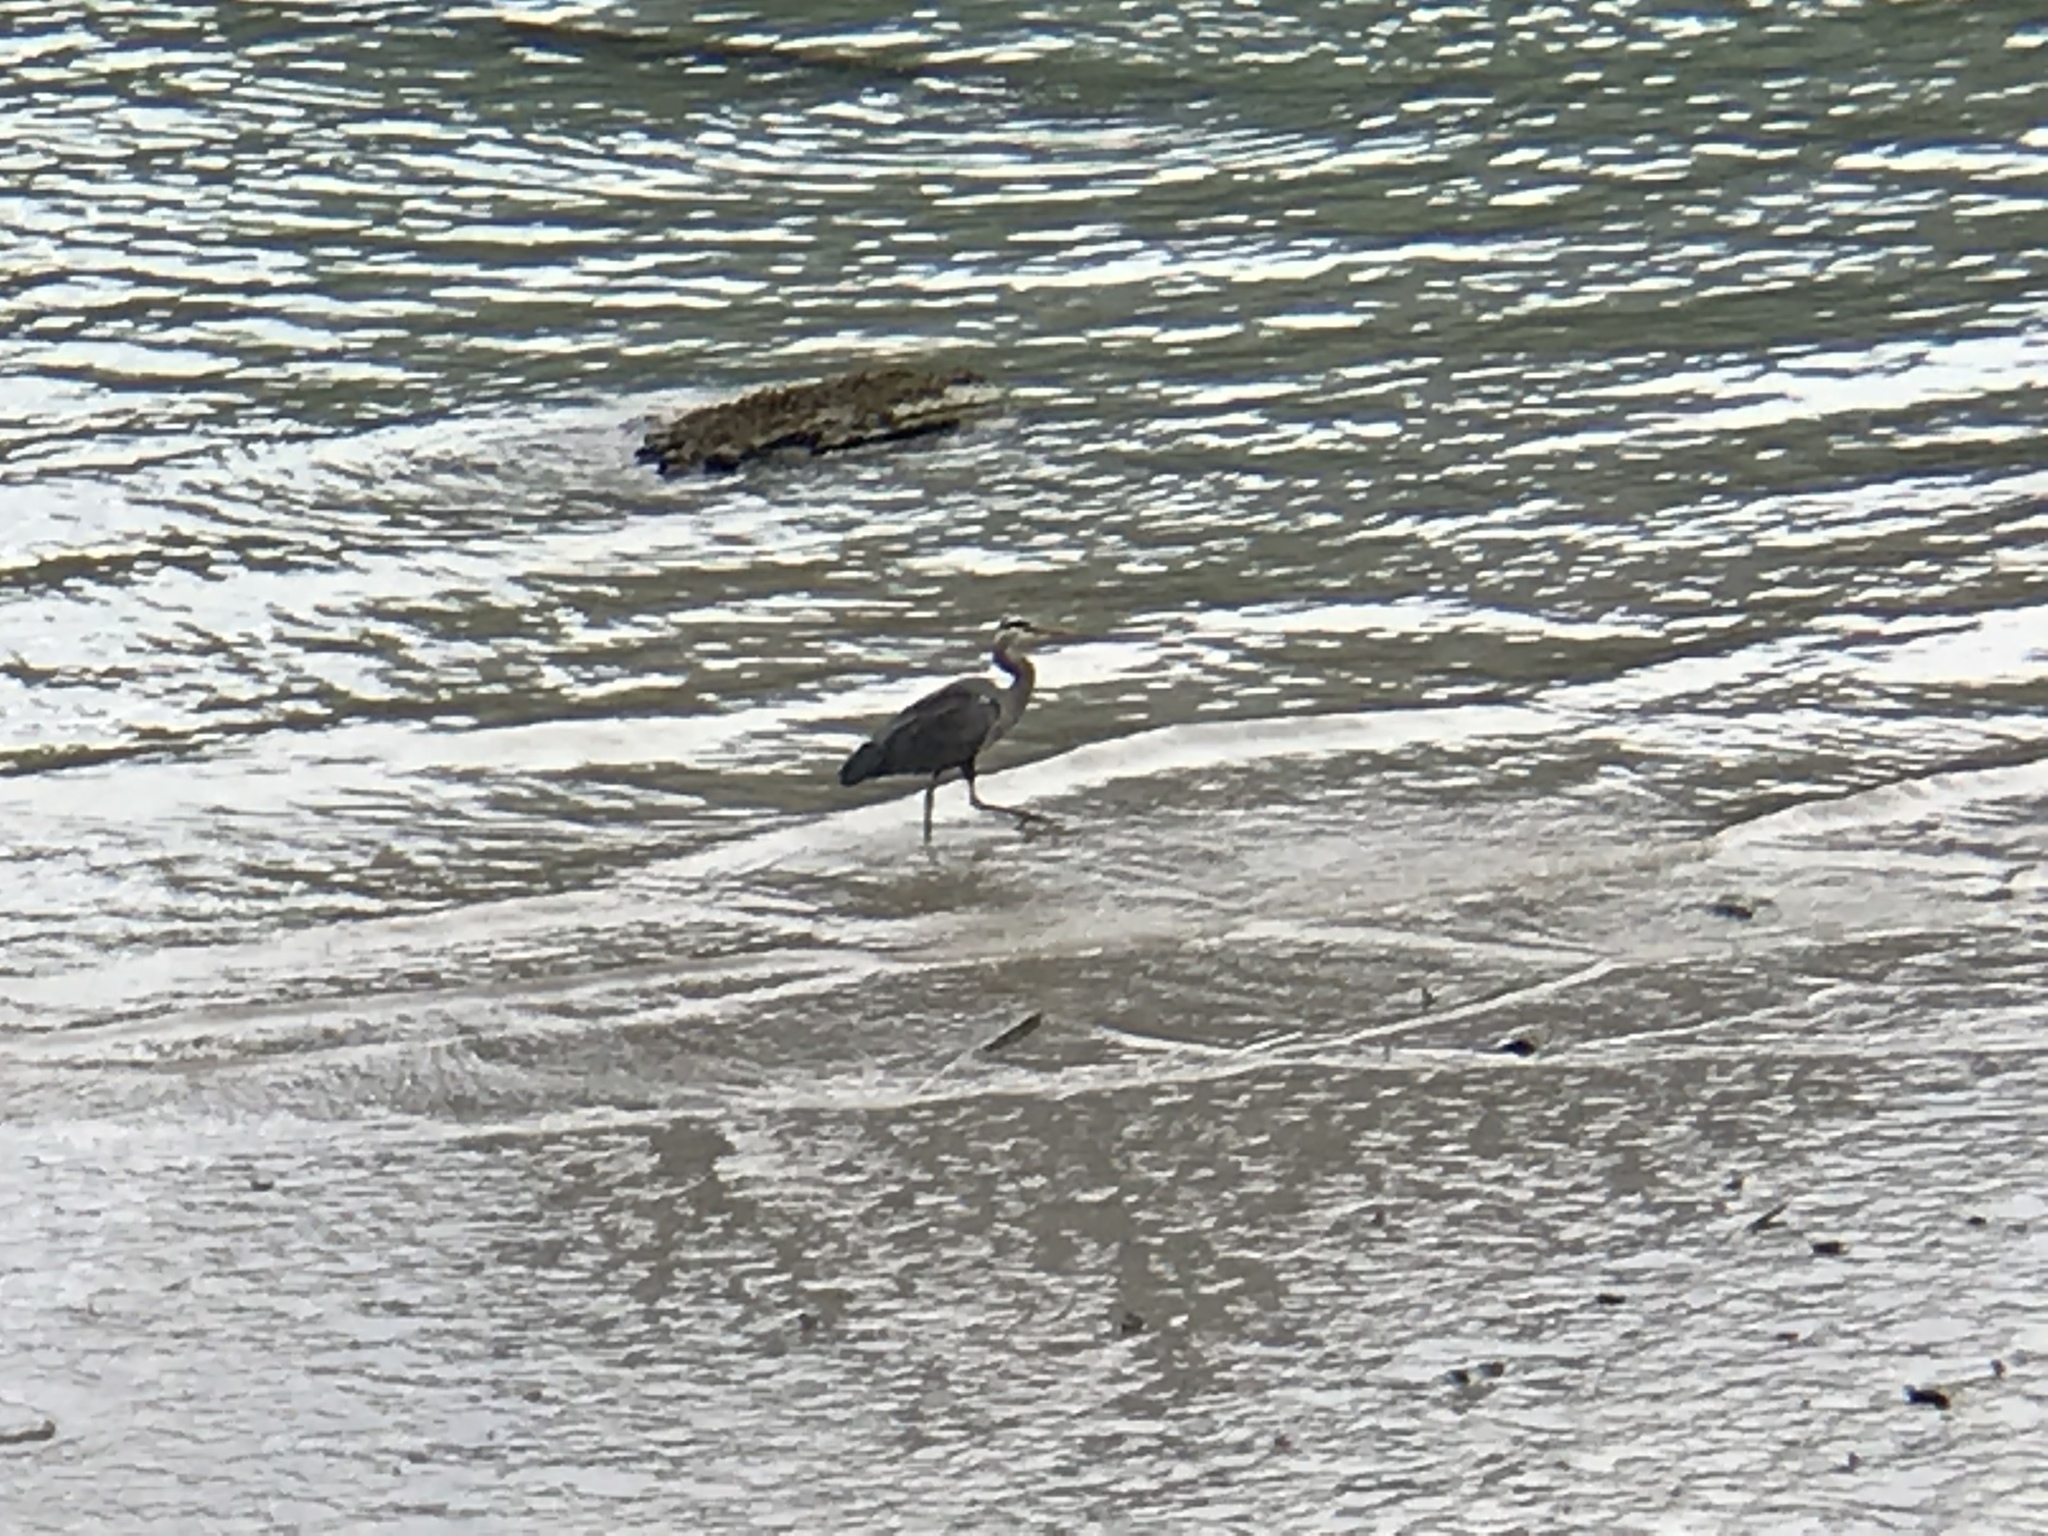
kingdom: Animalia
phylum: Chordata
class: Aves
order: Pelecaniformes
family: Ardeidae
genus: Ardea
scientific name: Ardea herodias
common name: Great blue heron
